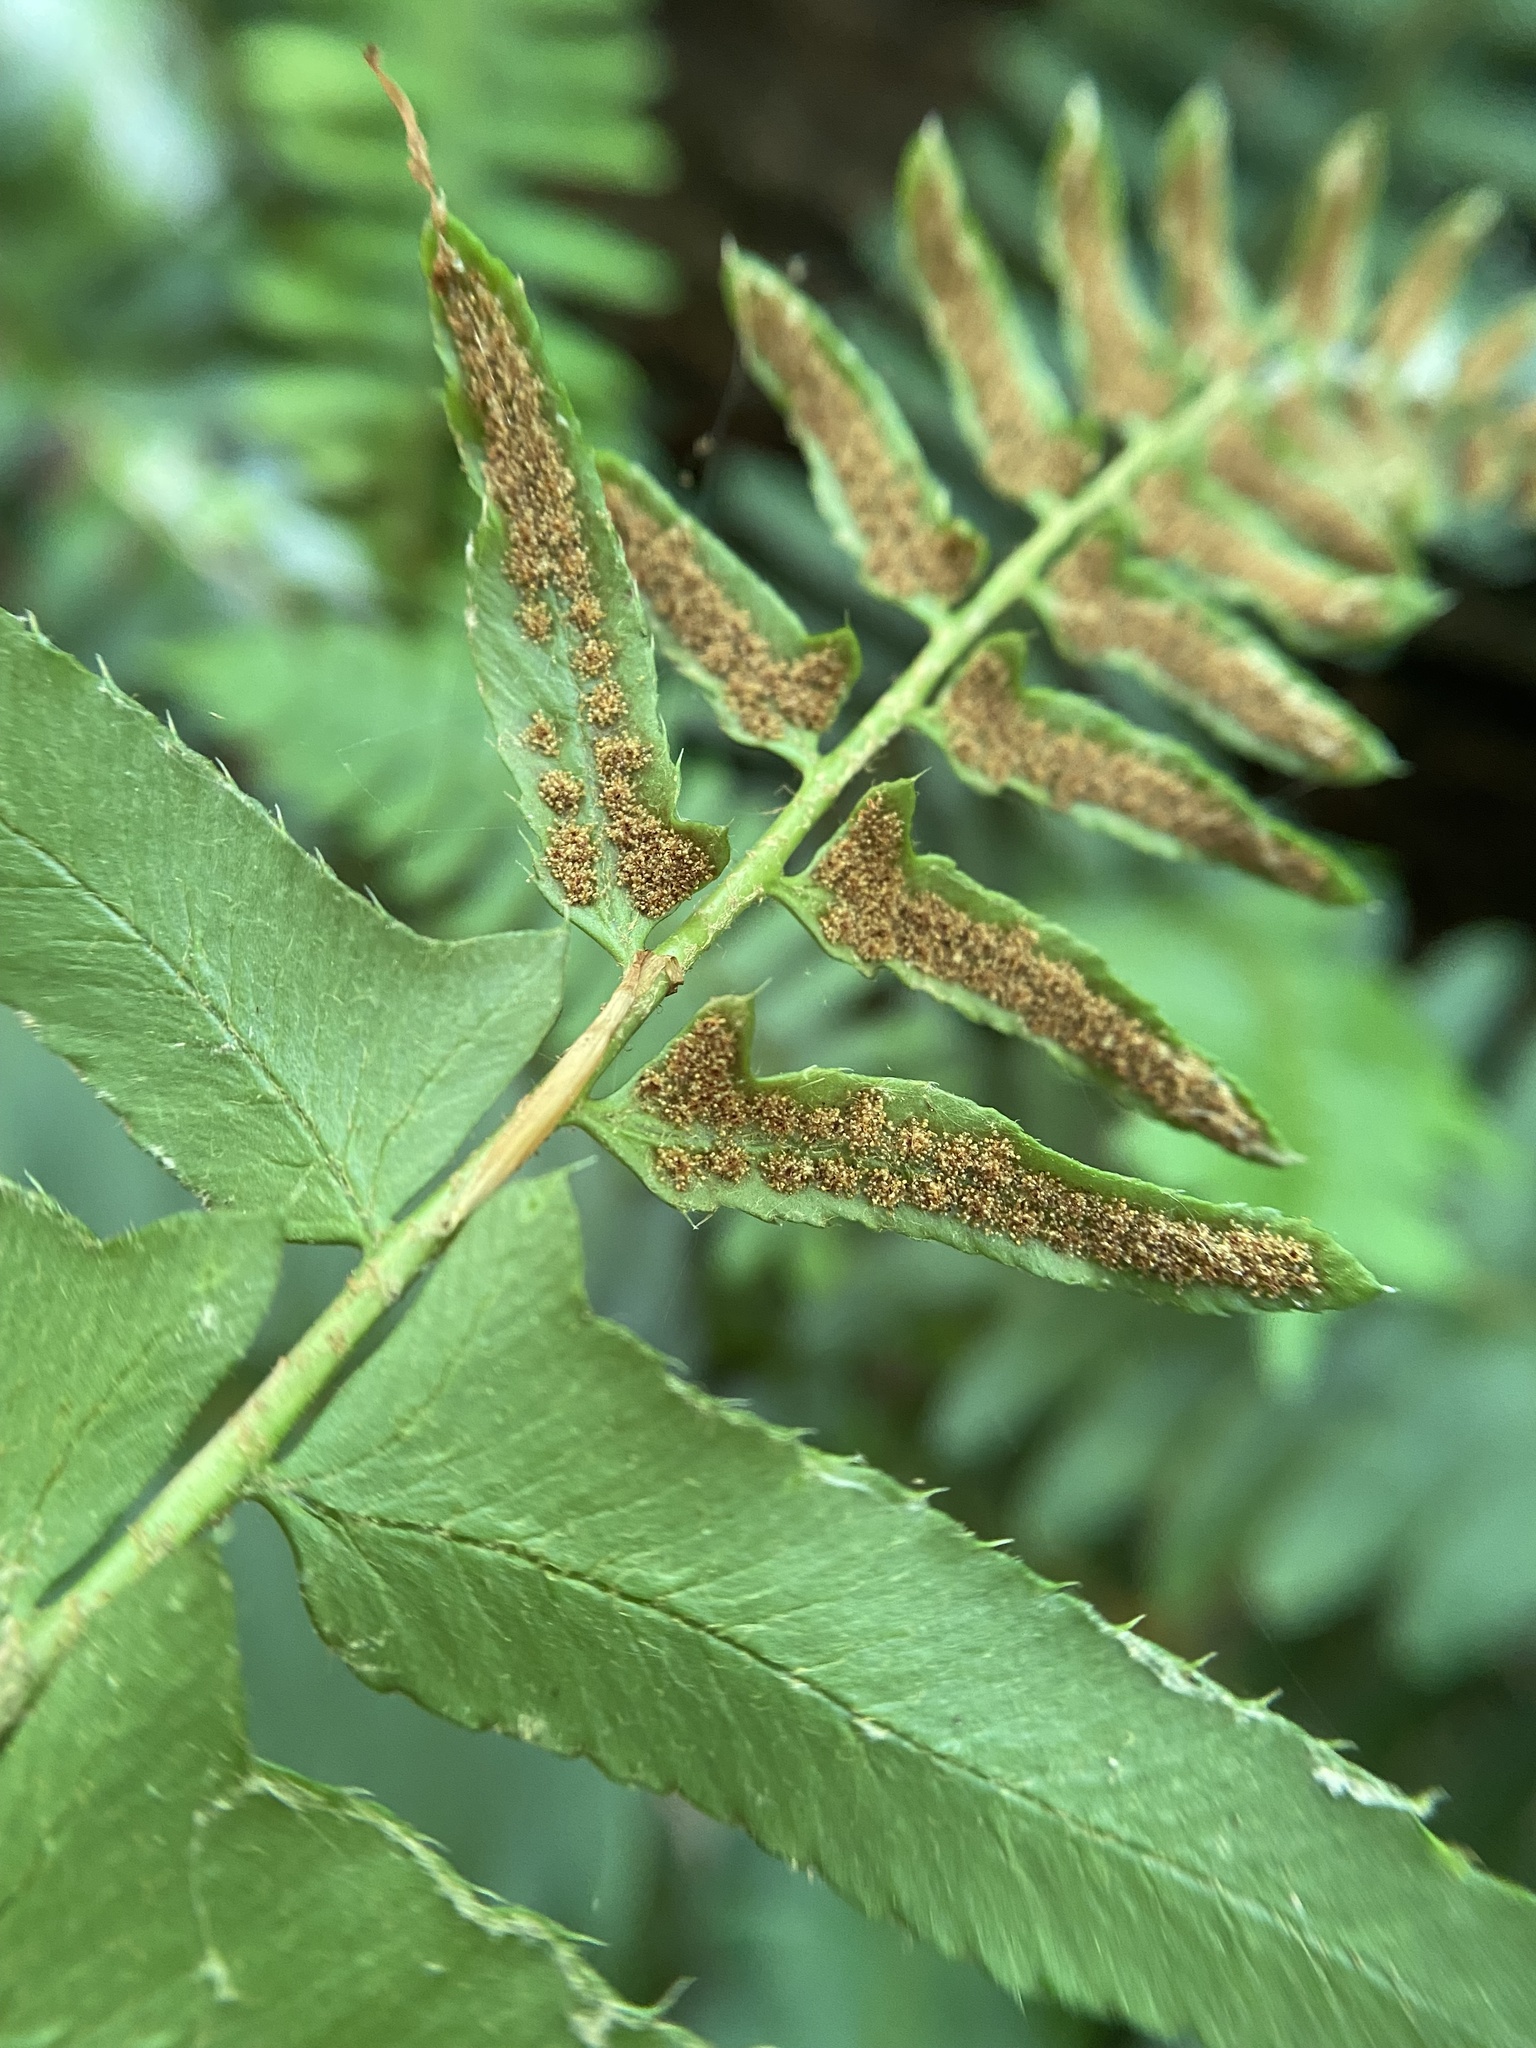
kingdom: Plantae
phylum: Tracheophyta
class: Polypodiopsida
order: Polypodiales
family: Dryopteridaceae
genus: Polystichum
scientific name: Polystichum acrostichoides
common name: Christmas fern
